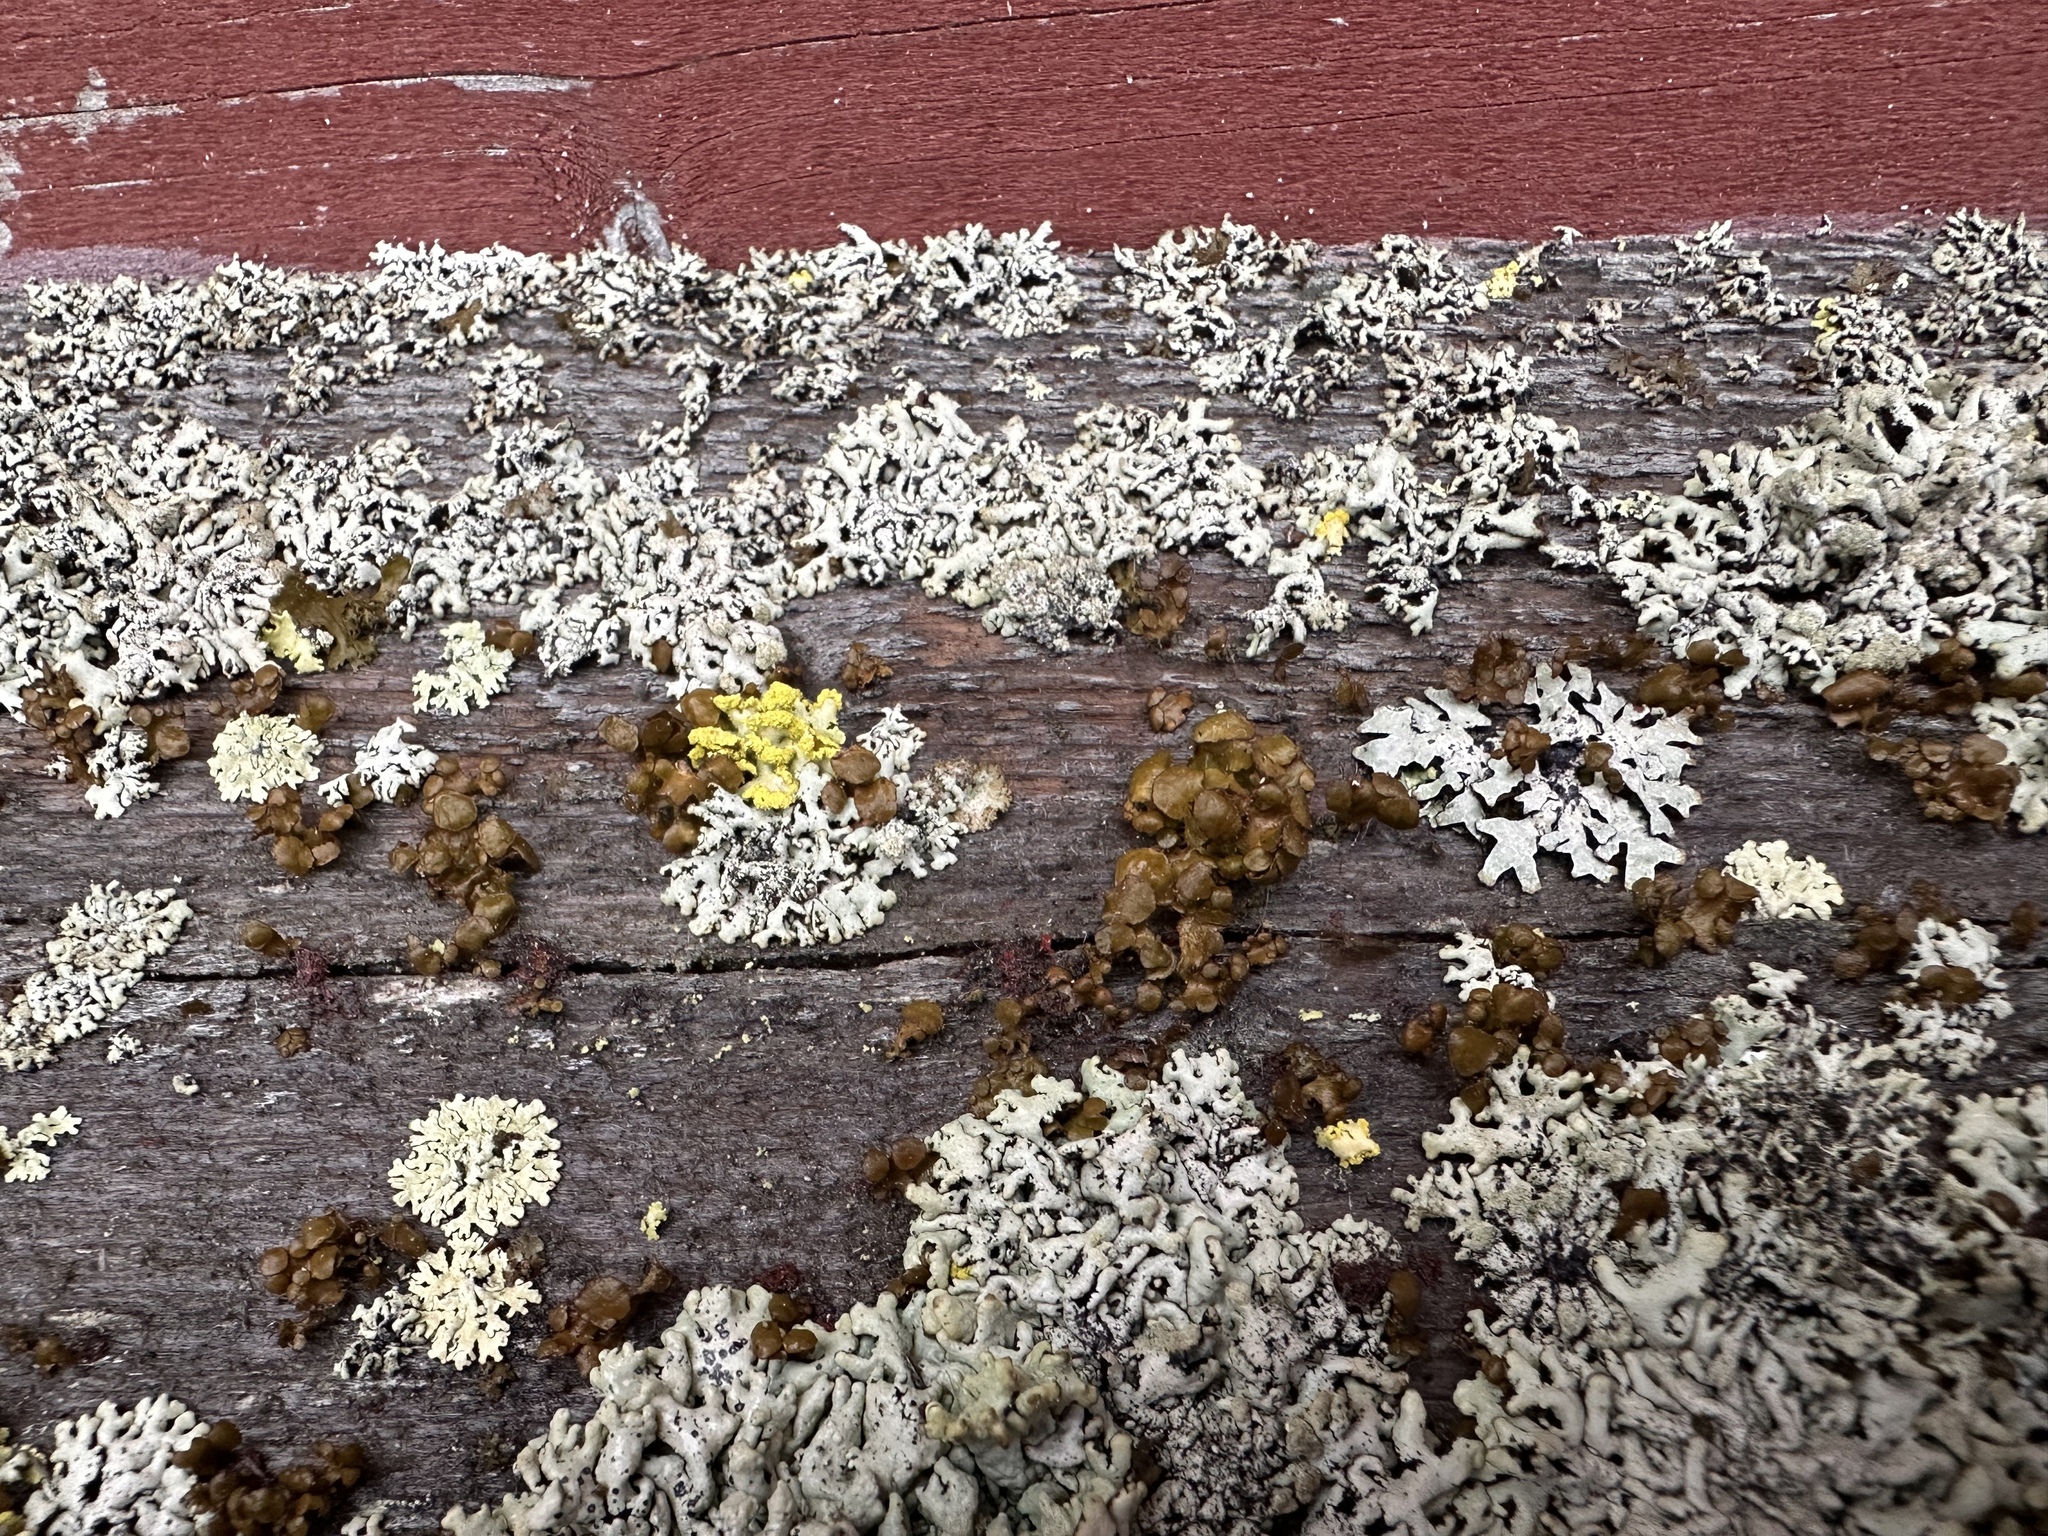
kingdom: Fungi
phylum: Ascomycota
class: Lecanoromycetes
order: Lecanorales
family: Parmeliaceae
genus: Bryoria
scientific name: Bryoria fuscescens
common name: Pale-footed horsehair lichen
